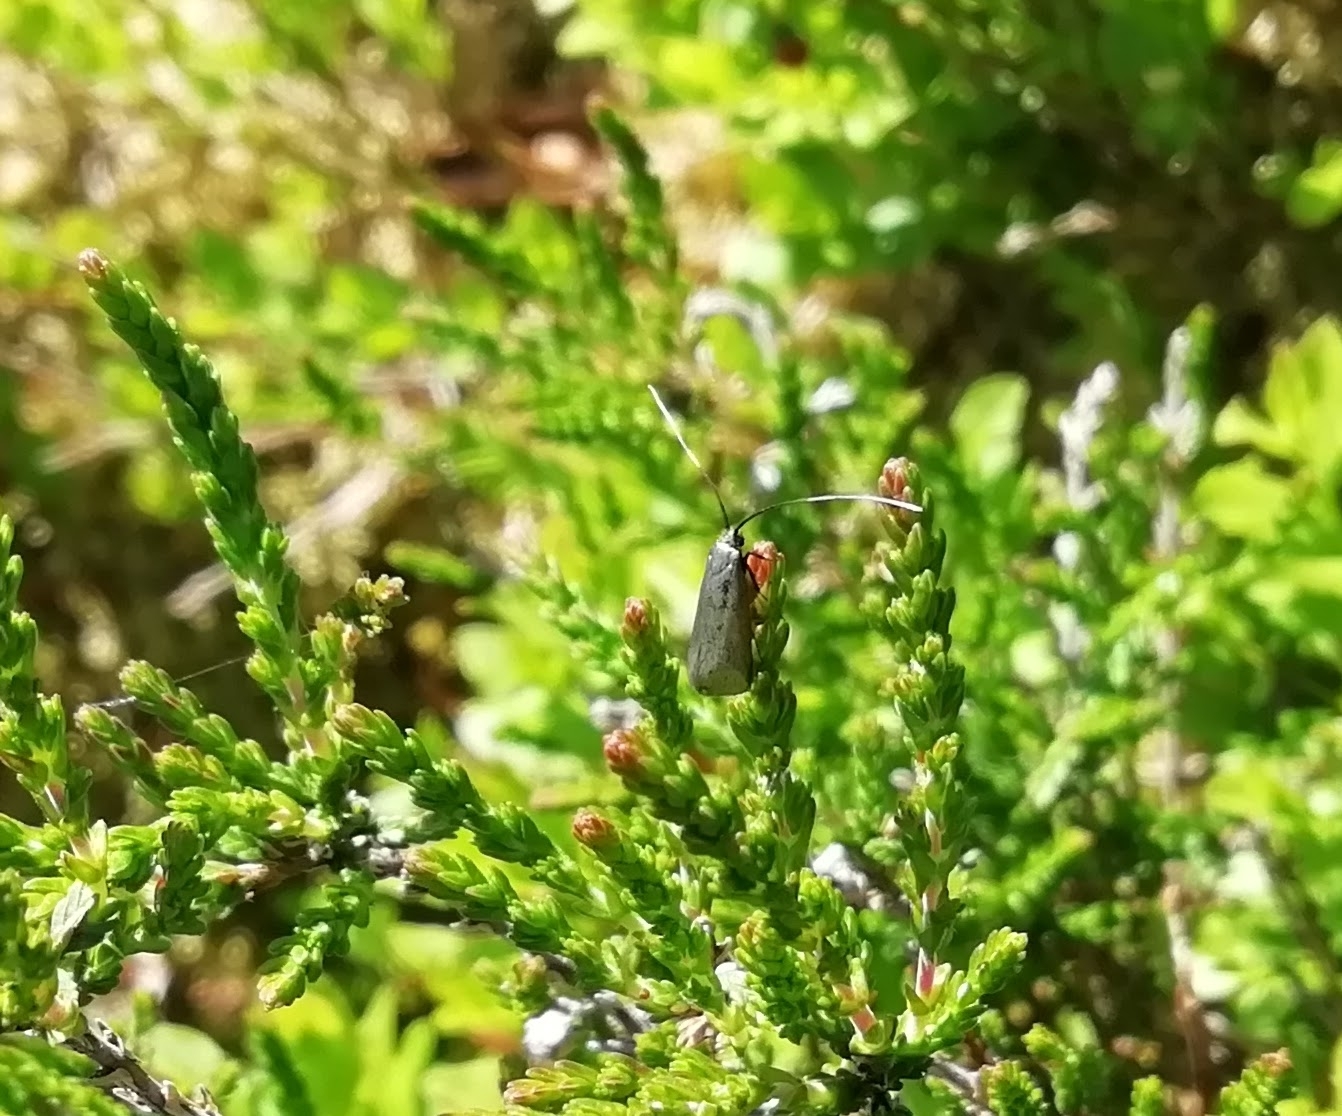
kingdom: Animalia
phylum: Arthropoda
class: Insecta
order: Lepidoptera
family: Adelidae
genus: Adela
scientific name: Adela viridella
